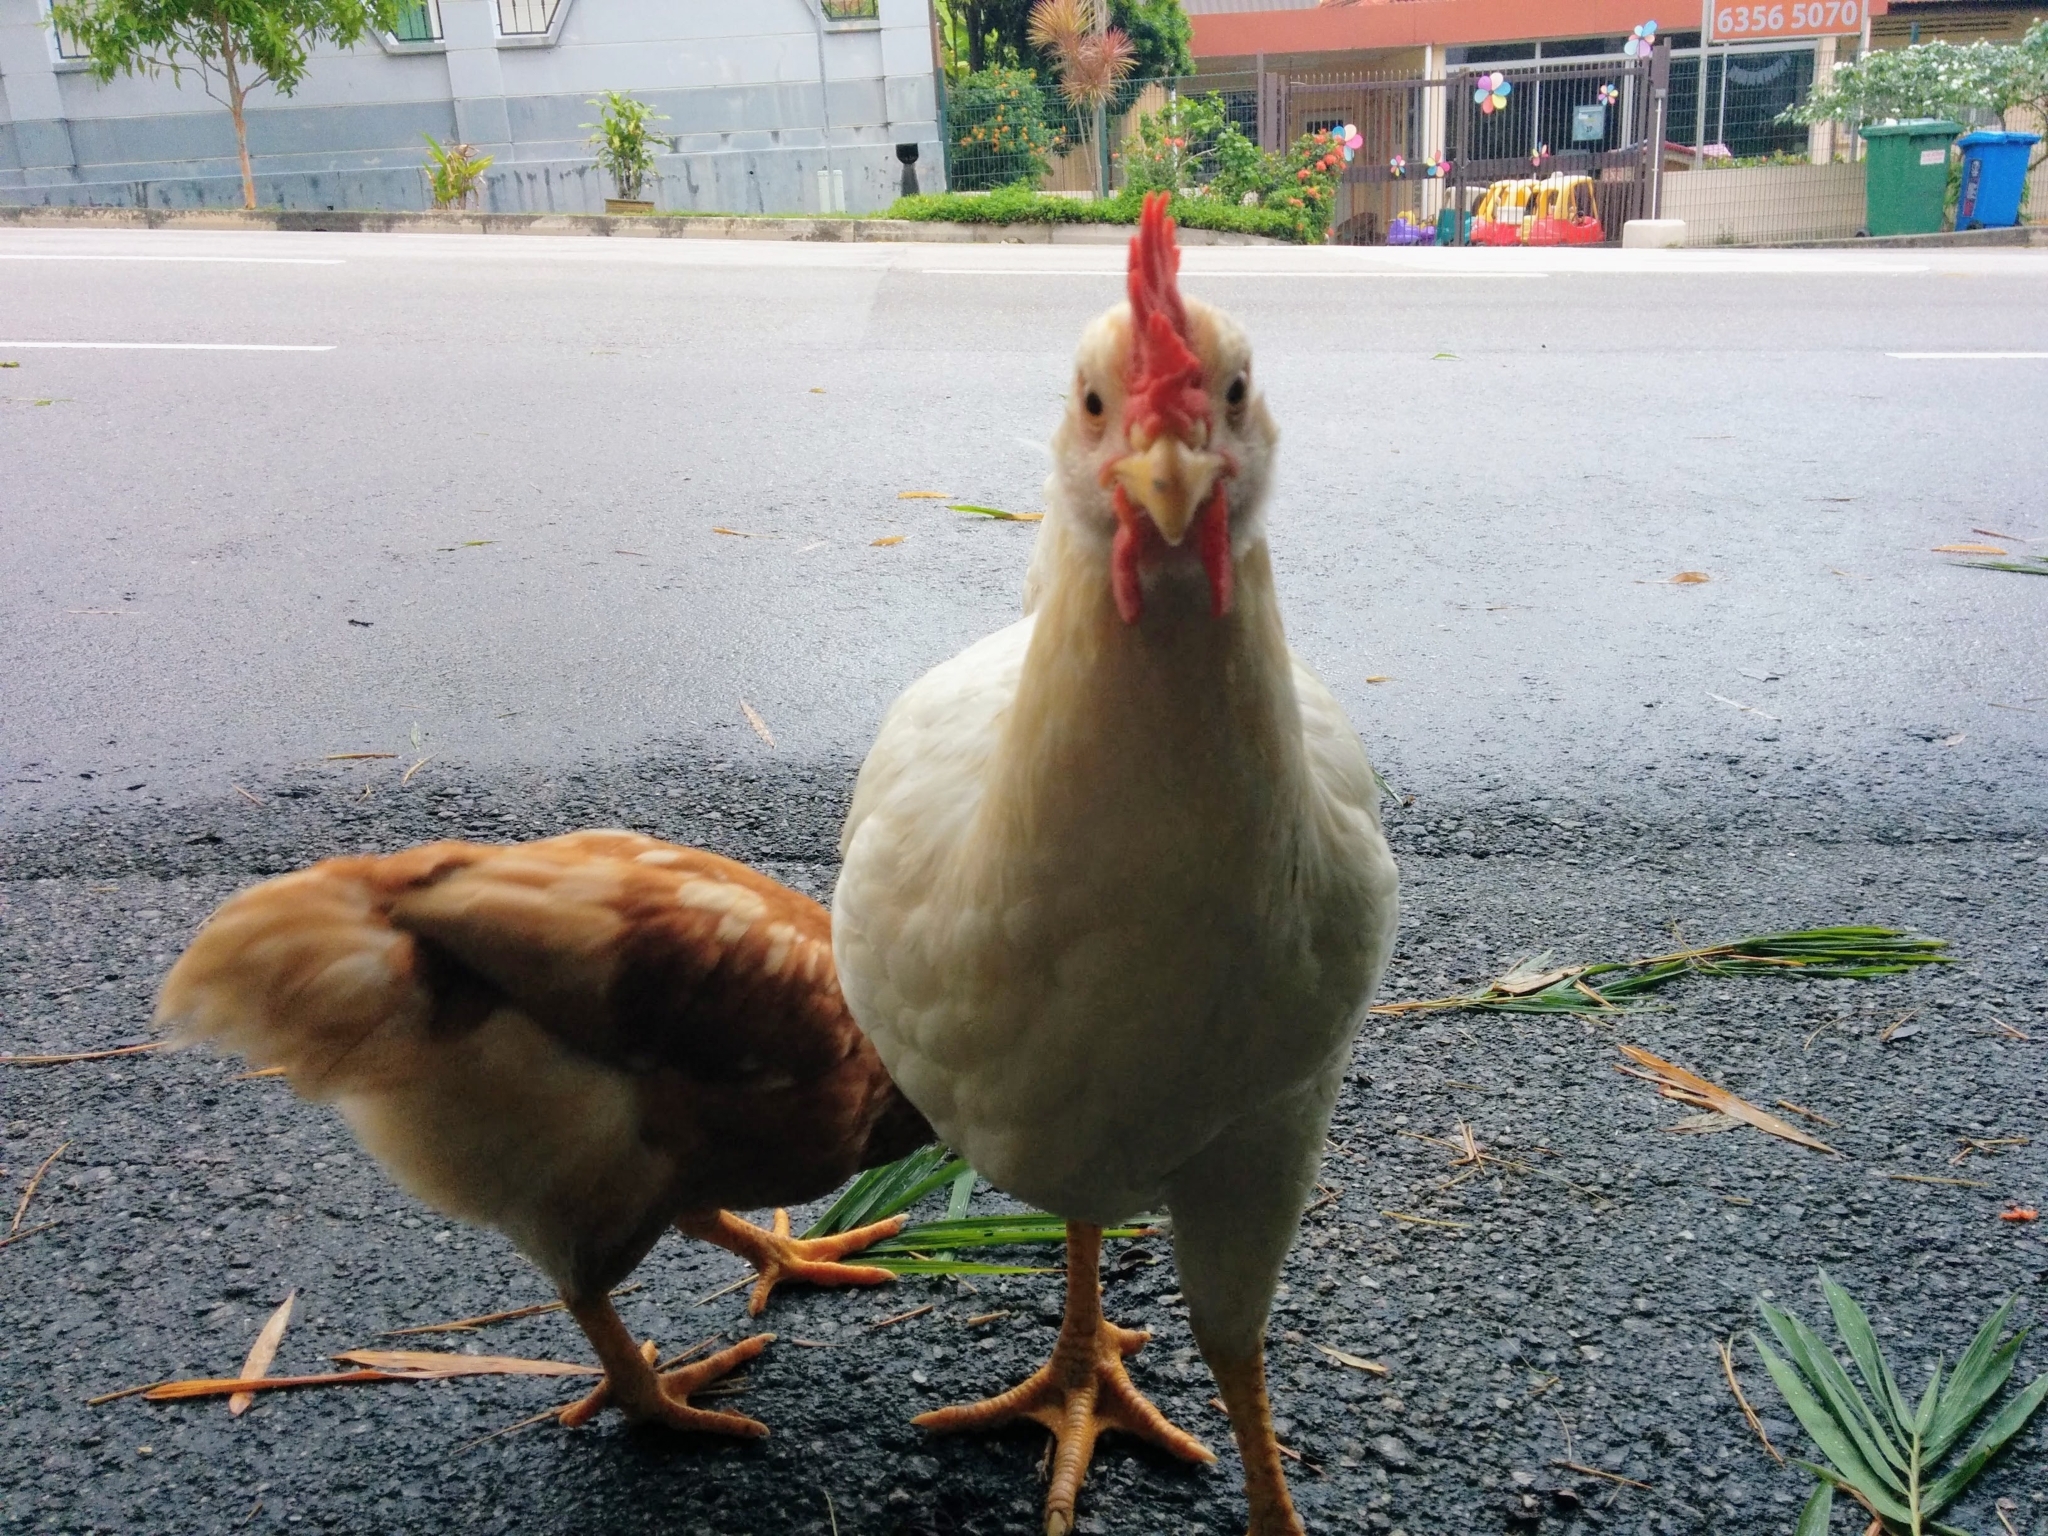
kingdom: Animalia
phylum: Chordata
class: Aves
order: Galliformes
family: Phasianidae
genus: Gallus
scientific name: Gallus gallus
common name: Red junglefowl
